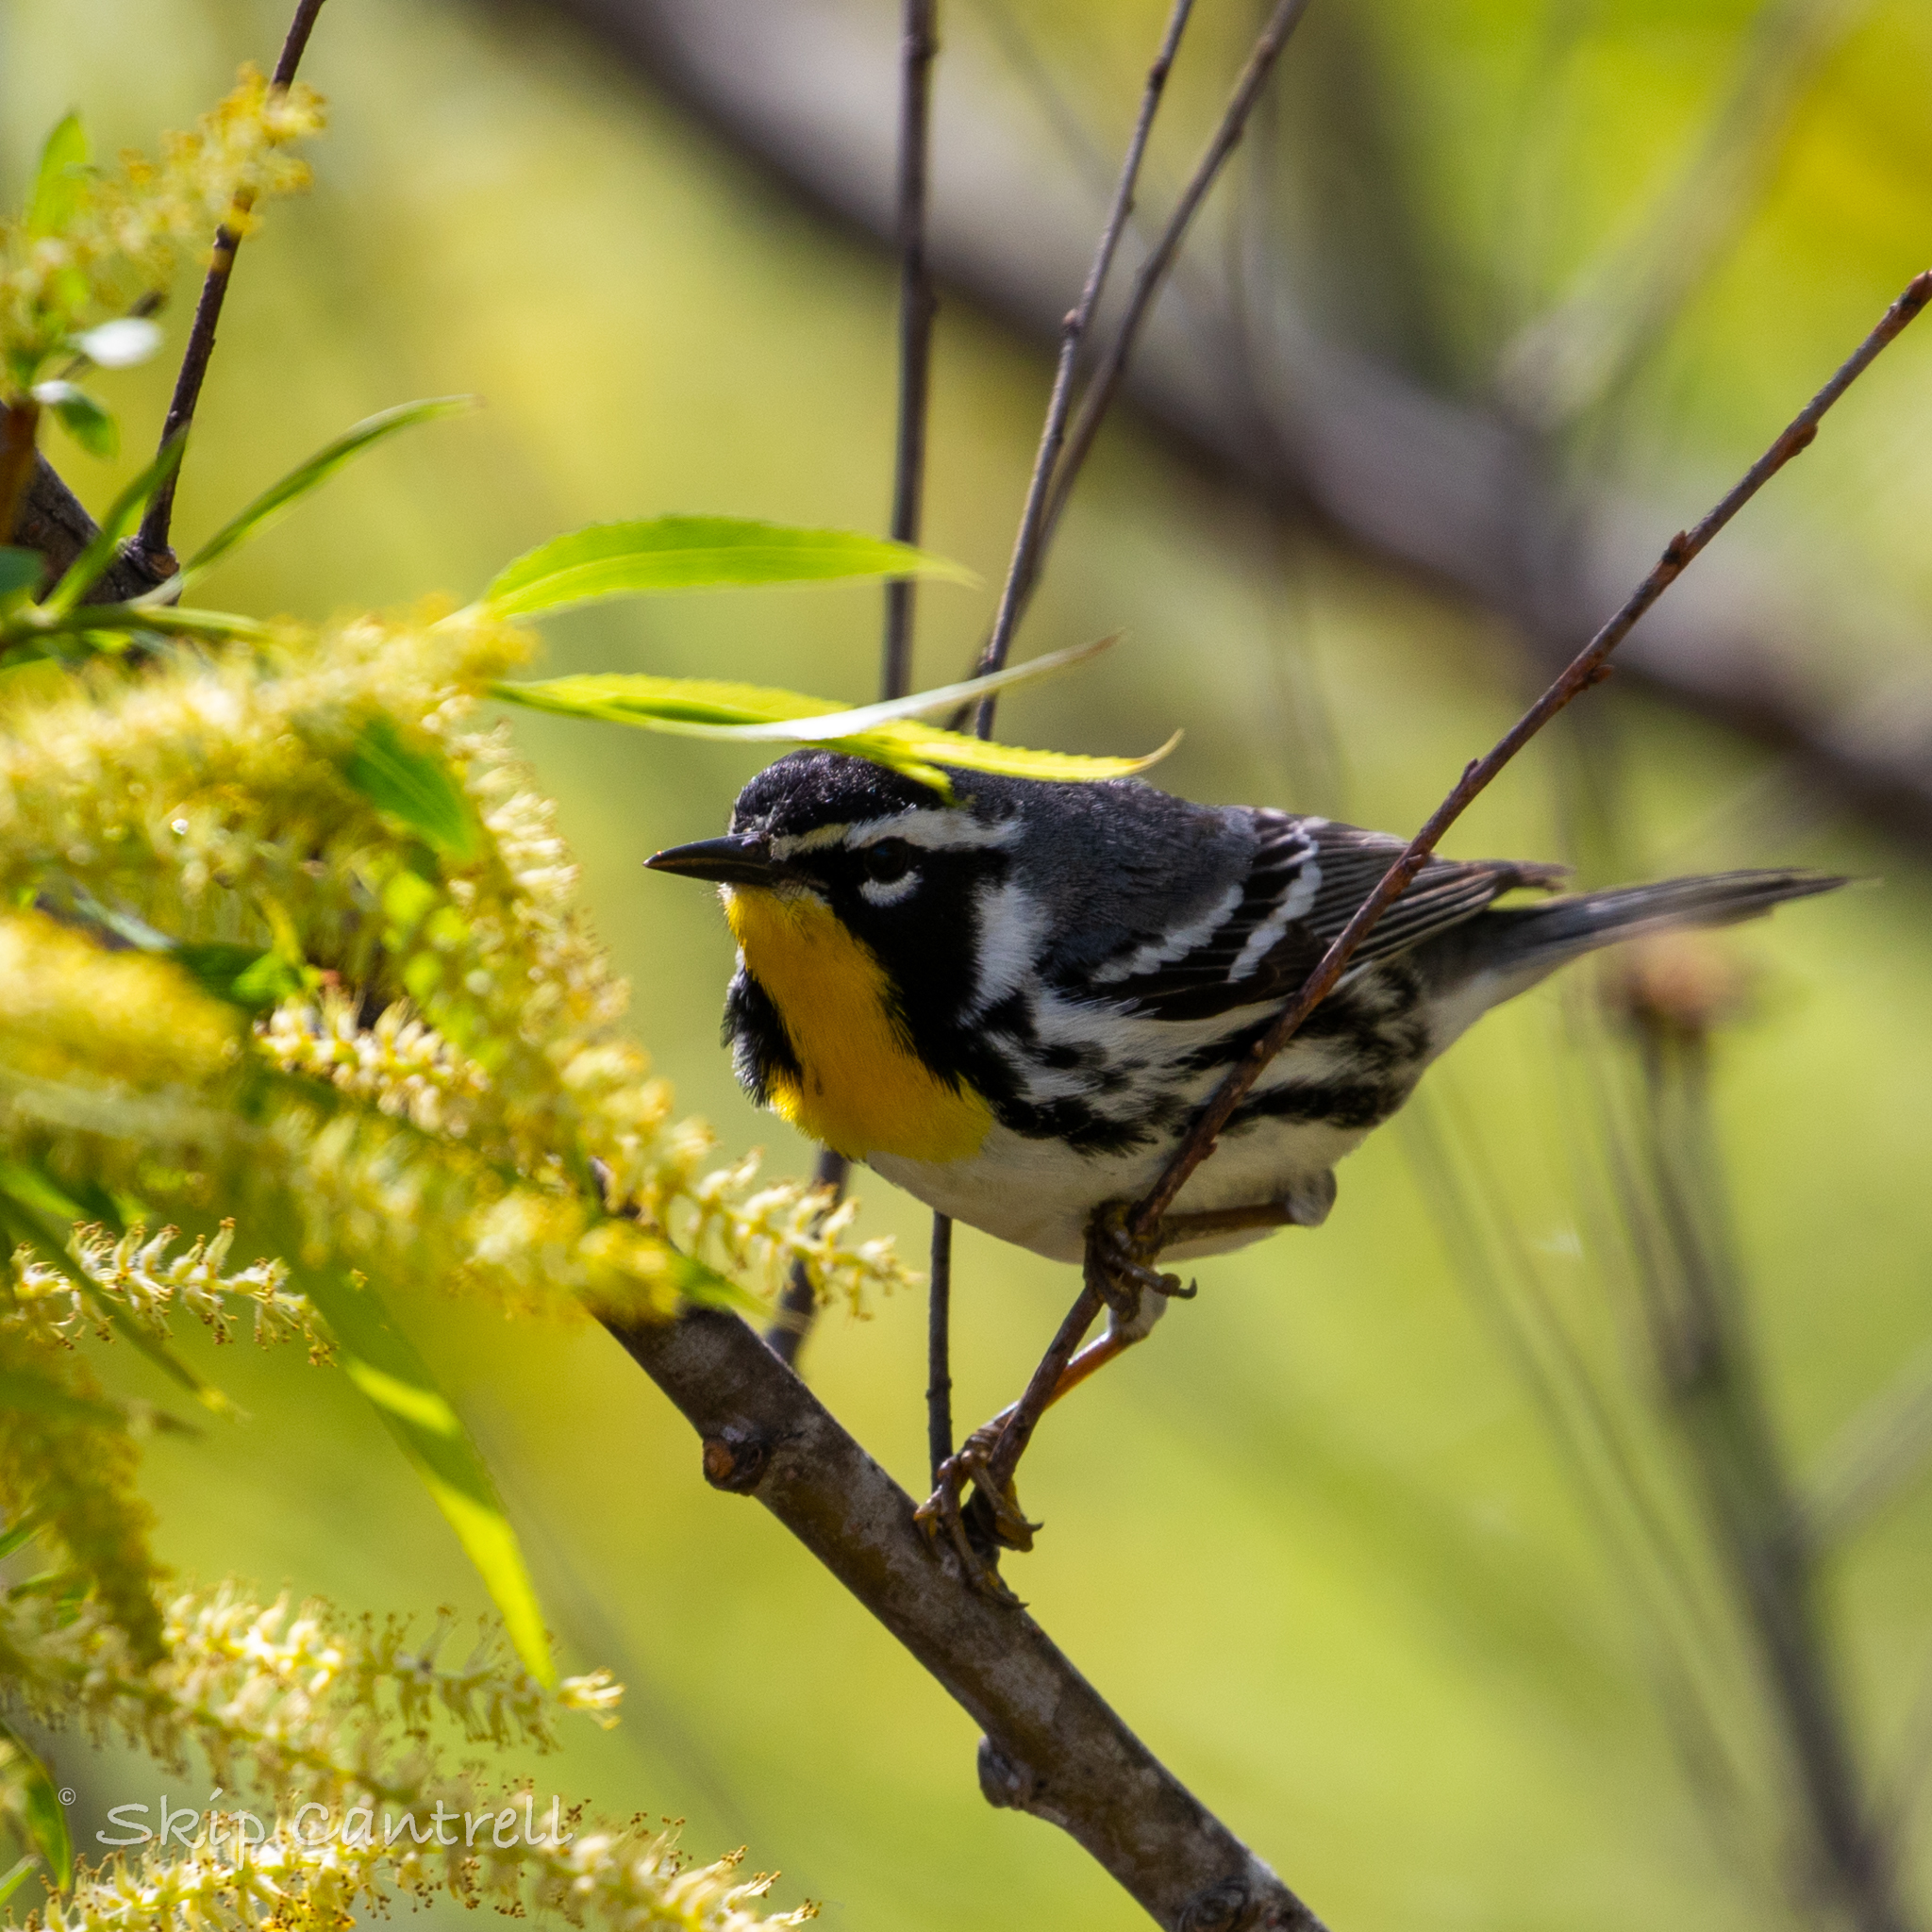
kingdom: Animalia
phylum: Chordata
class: Aves
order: Passeriformes
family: Parulidae
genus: Setophaga
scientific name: Setophaga dominica
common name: Yellow-throated warbler
